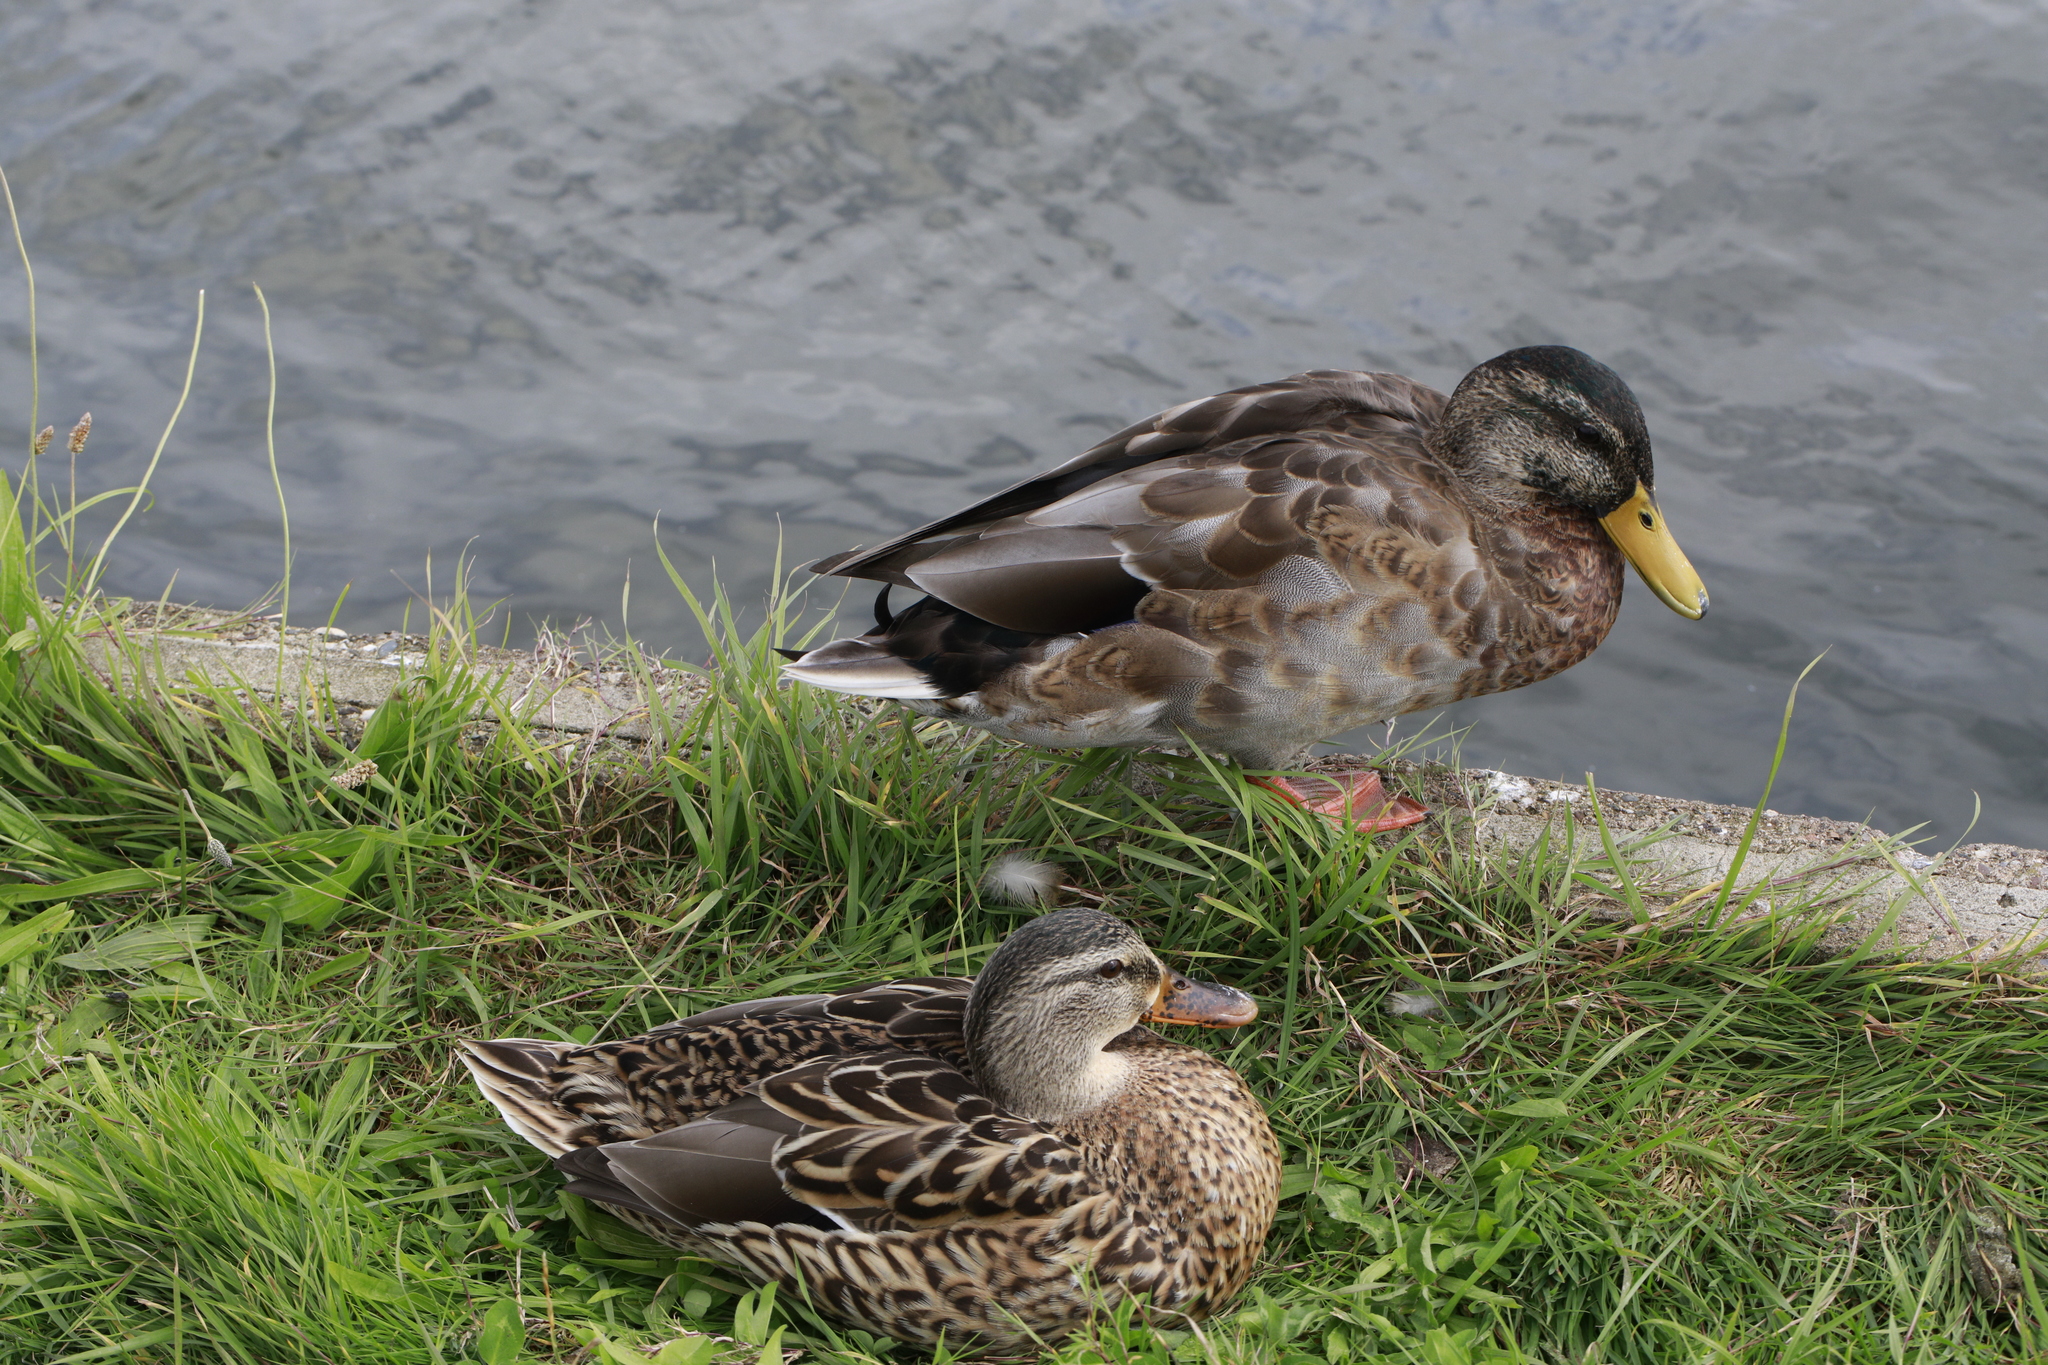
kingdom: Animalia
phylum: Chordata
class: Aves
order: Anseriformes
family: Anatidae
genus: Anas
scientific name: Anas platyrhynchos
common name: Mallard
